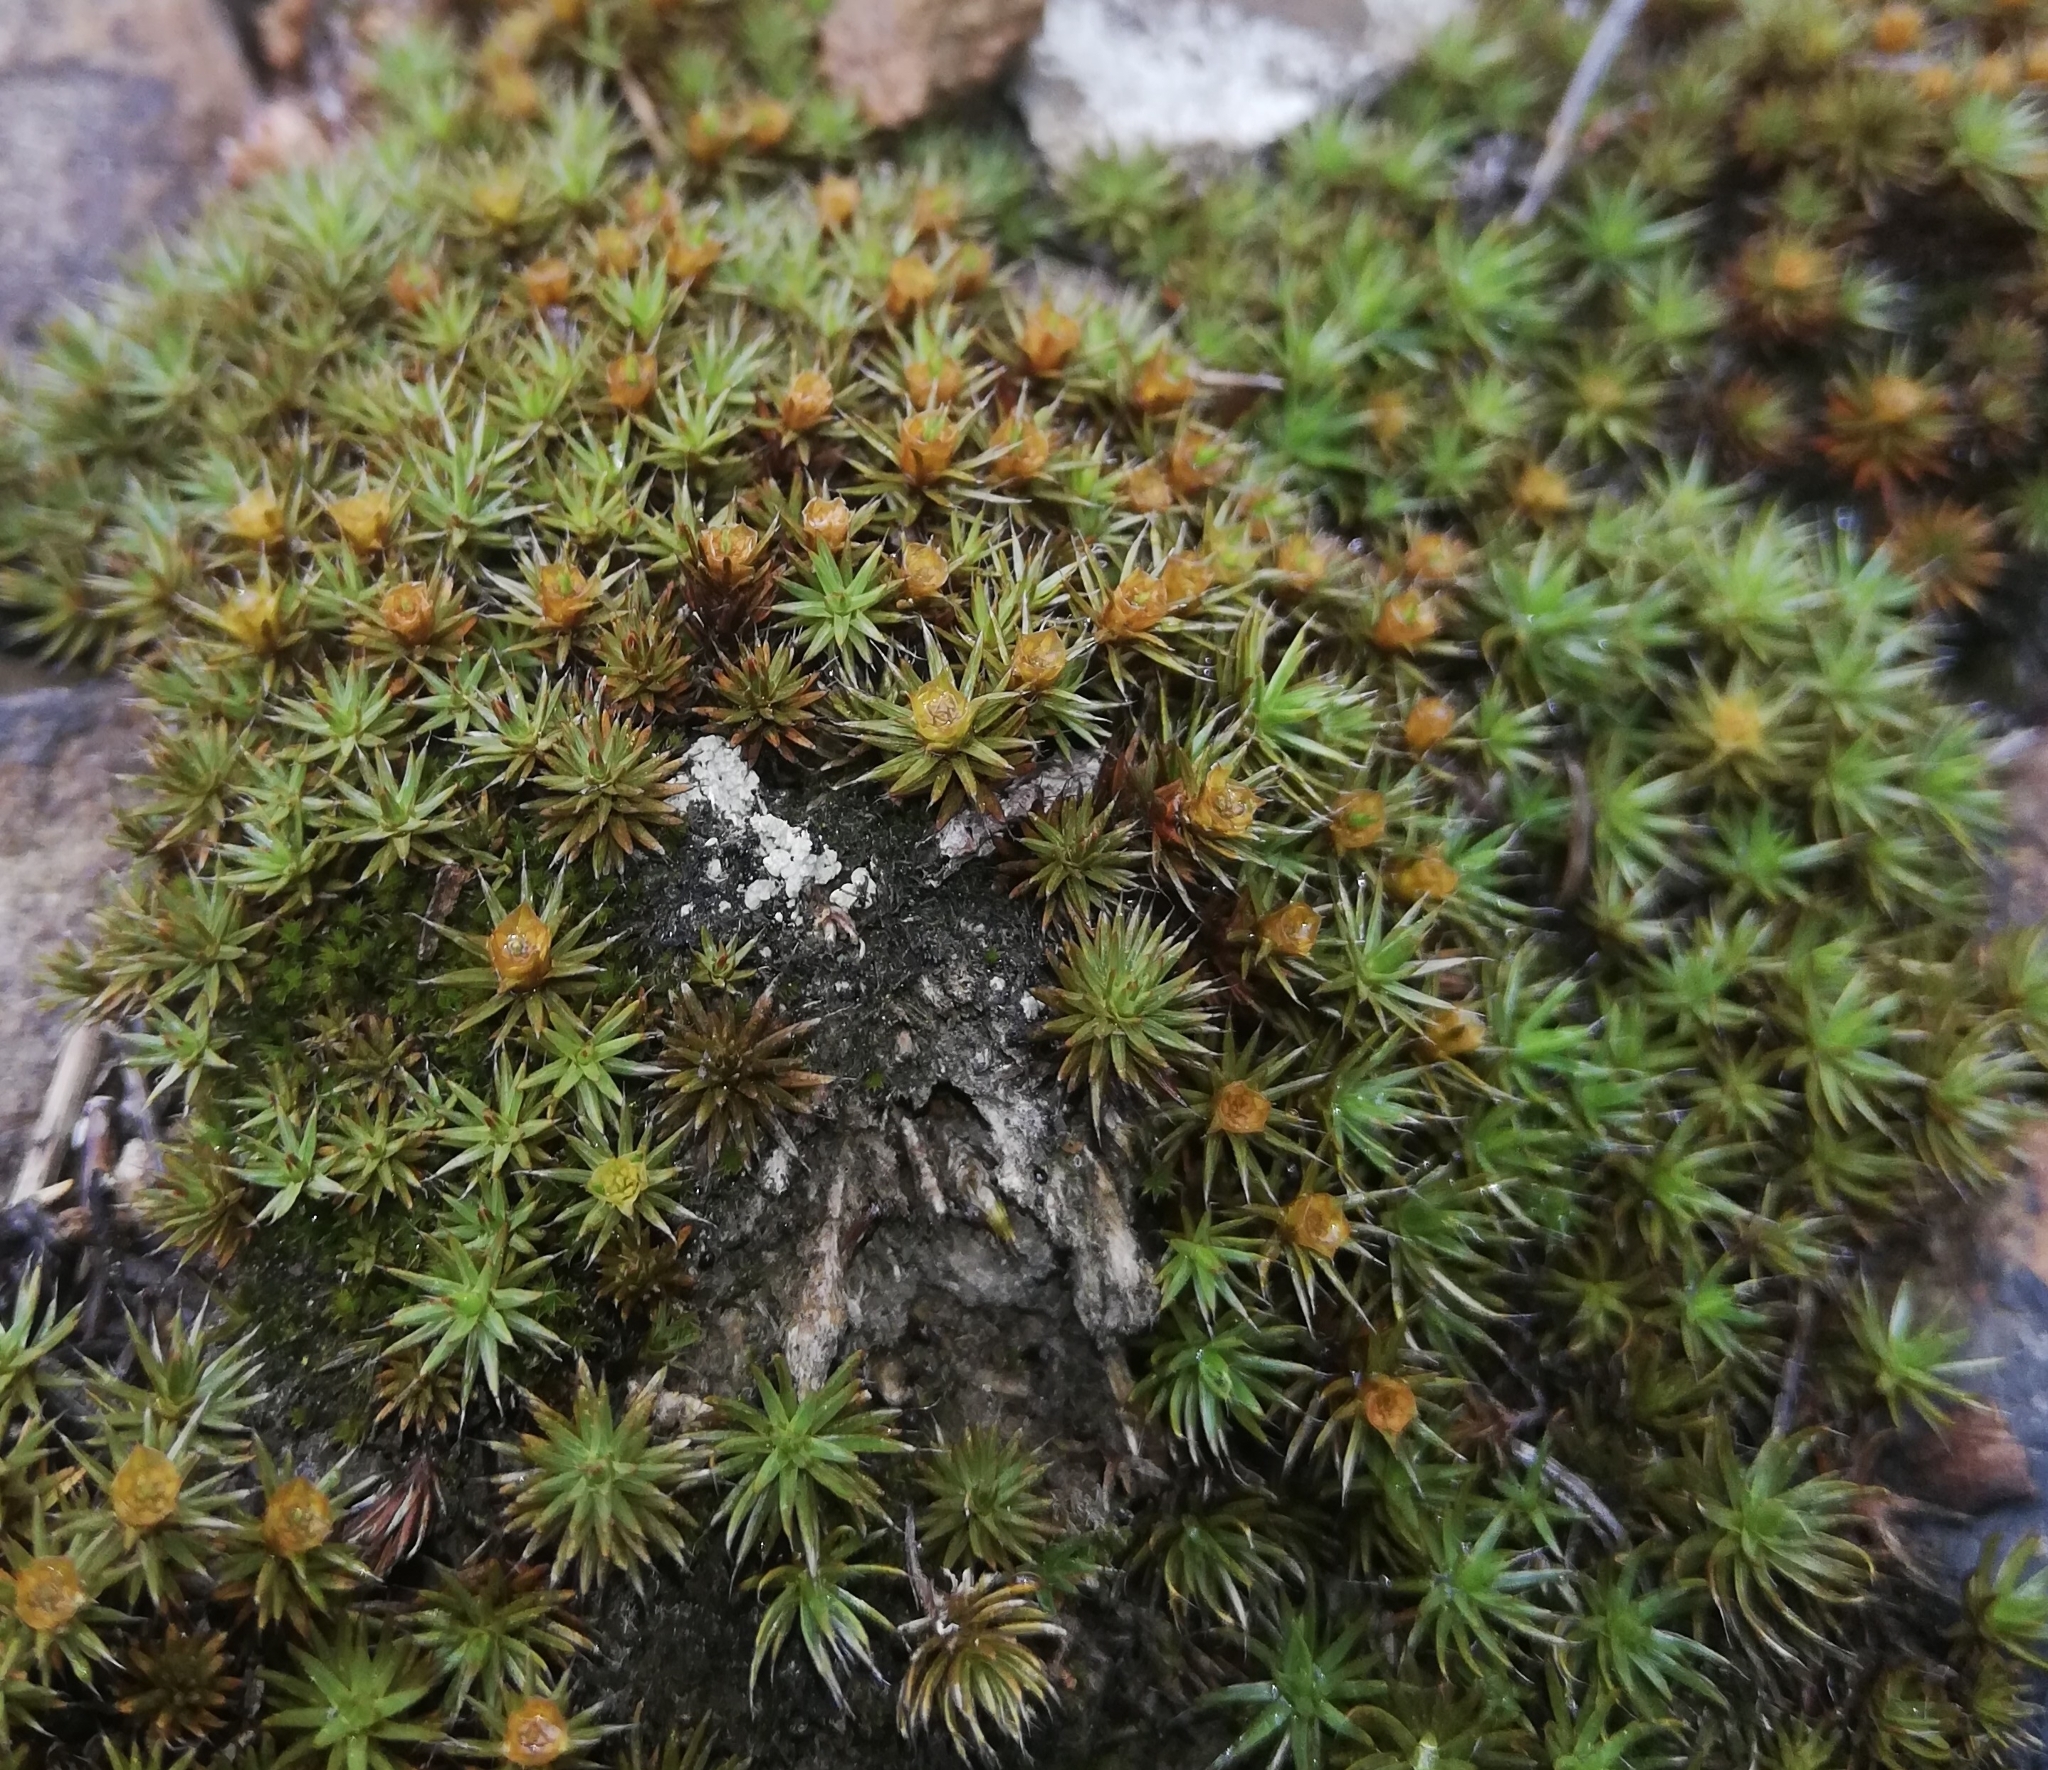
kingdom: Plantae
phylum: Bryophyta
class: Polytrichopsida
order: Polytrichales
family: Polytrichaceae
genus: Polytrichum
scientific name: Polytrichum piliferum
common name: Bristly haircap
